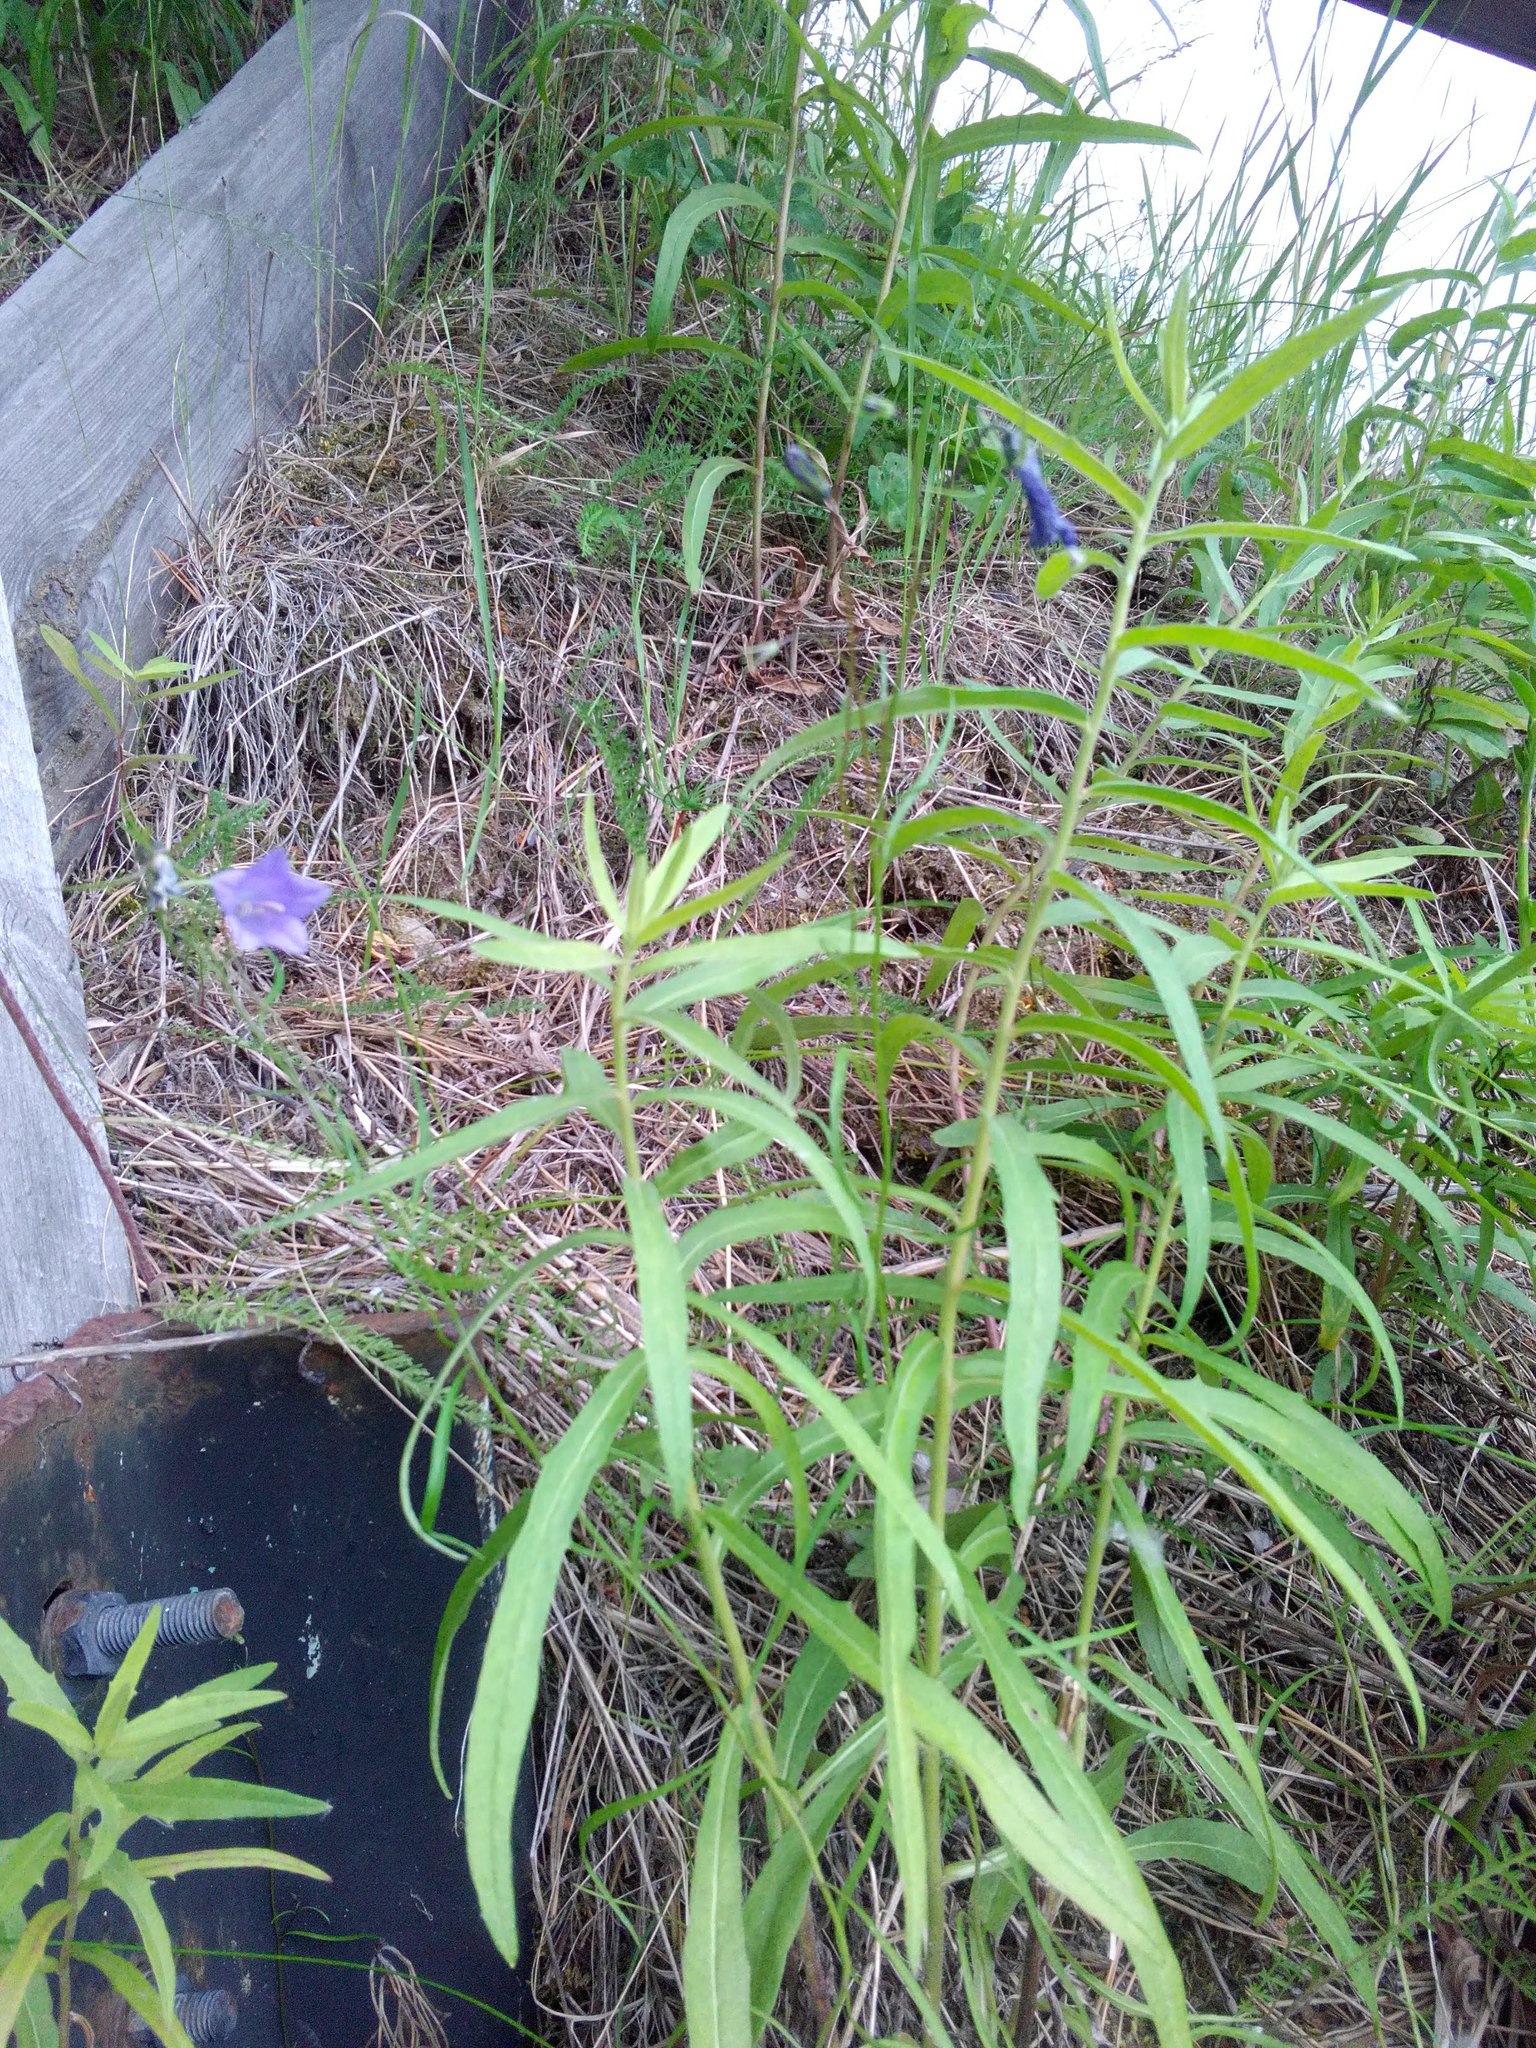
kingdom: Plantae
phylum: Tracheophyta
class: Magnoliopsida
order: Asterales
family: Campanulaceae
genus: Campanula
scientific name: Campanula rotundifolia
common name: Harebell
